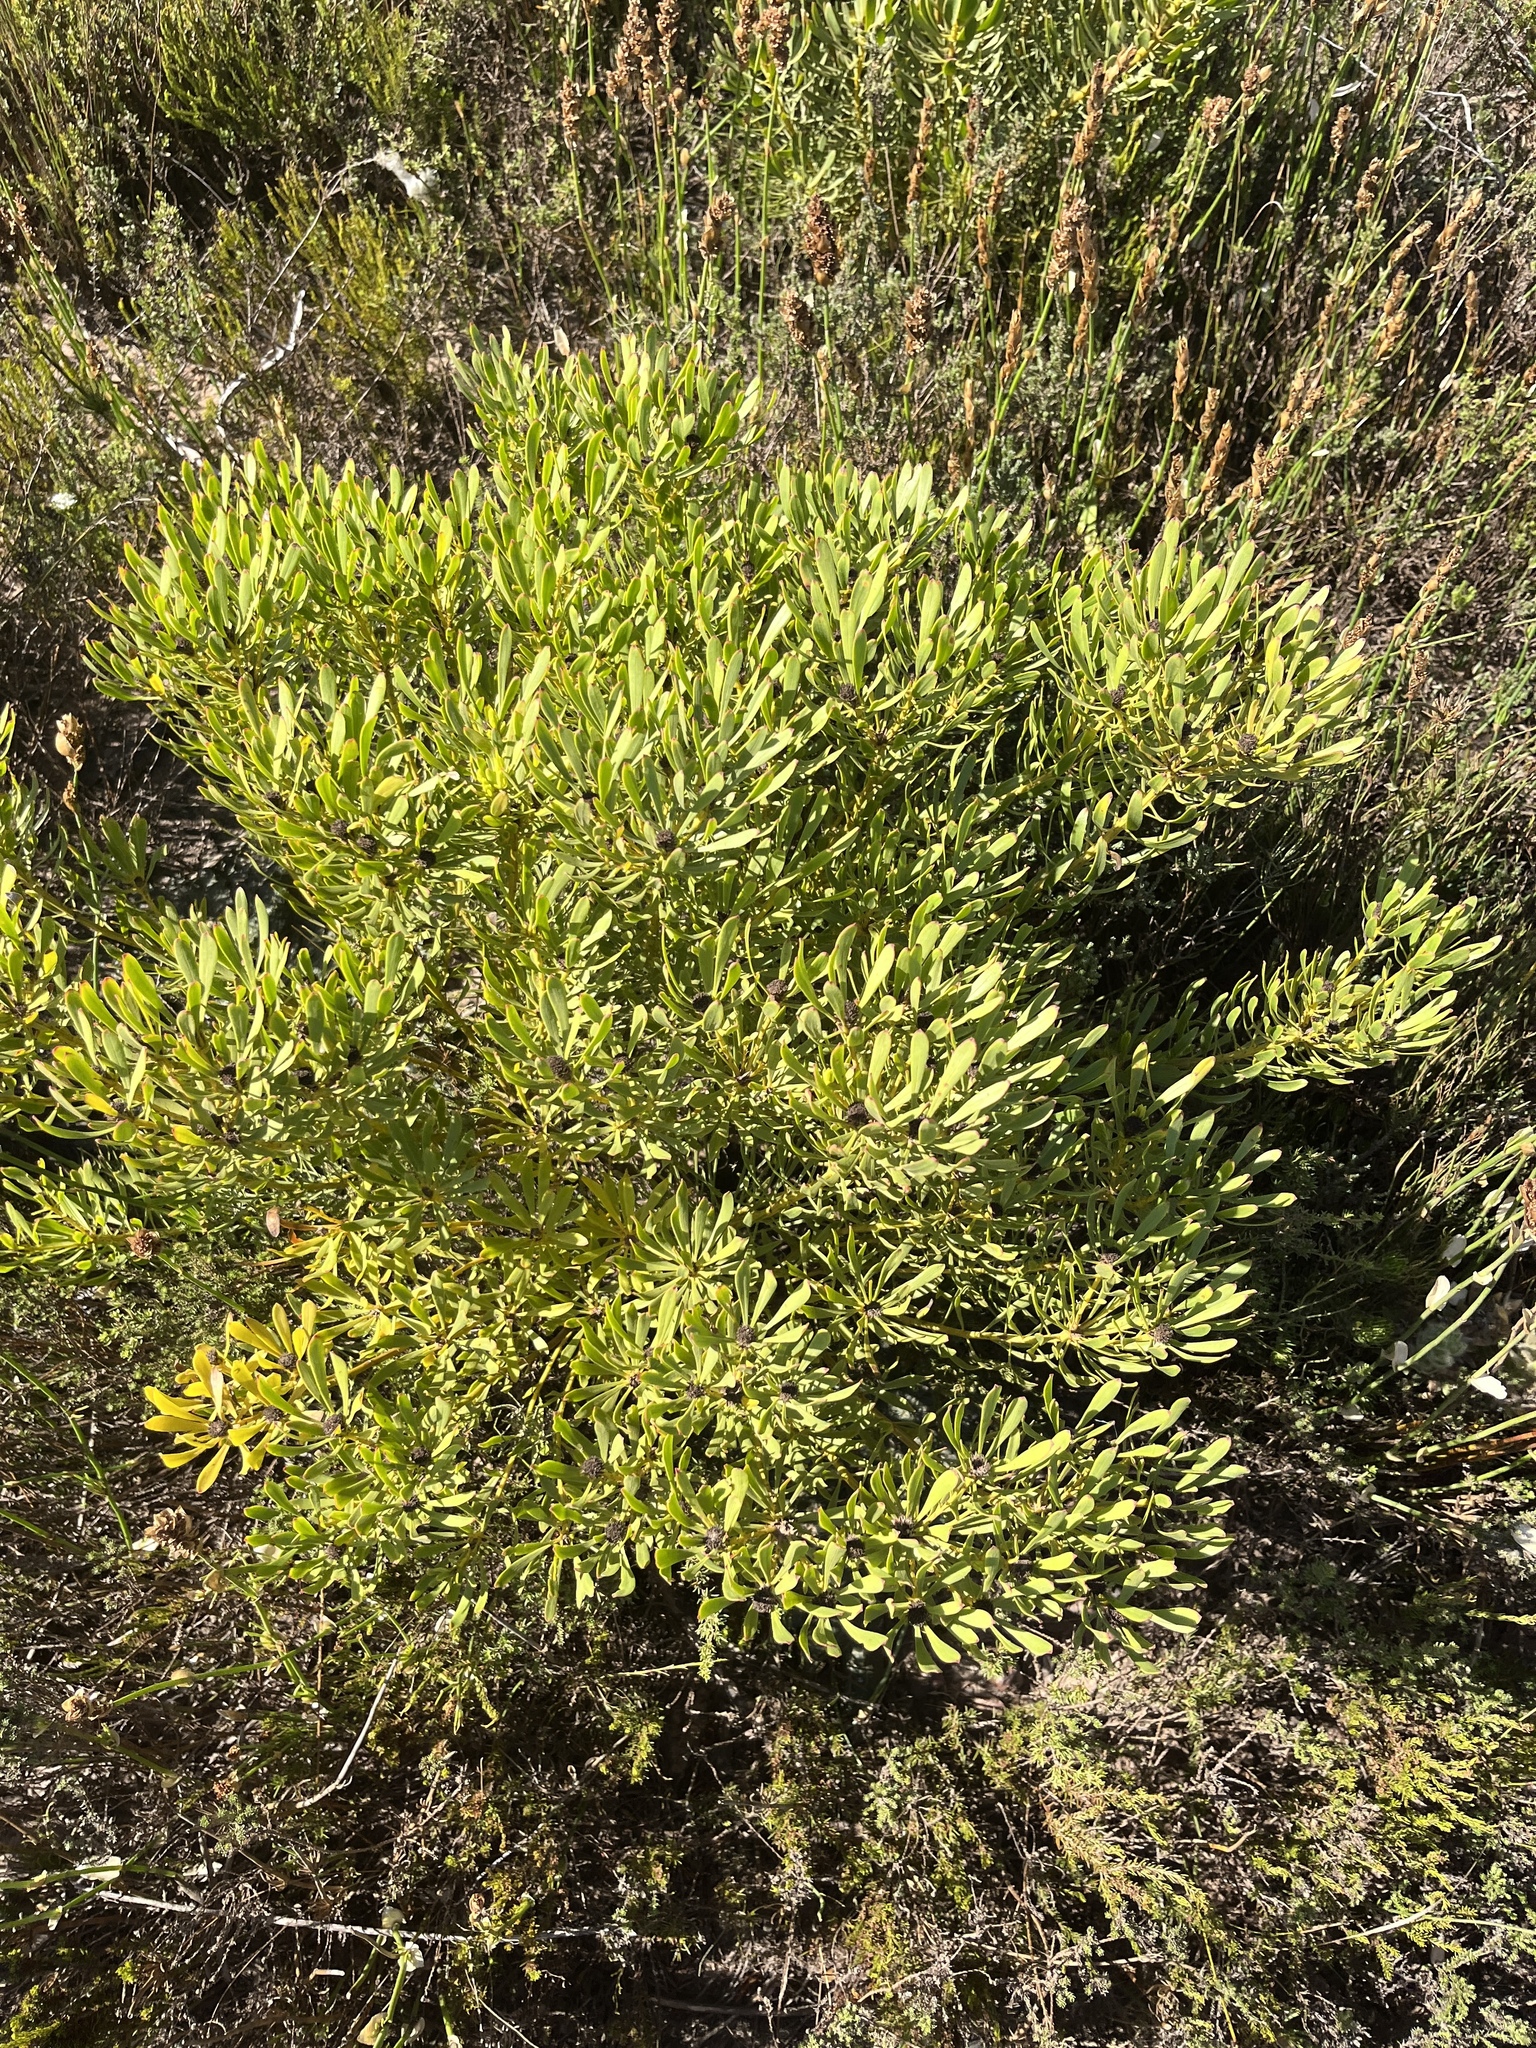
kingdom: Plantae
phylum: Tracheophyta
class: Magnoliopsida
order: Proteales
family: Proteaceae
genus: Leucadendron
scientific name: Leucadendron platyspermum
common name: Plate-seed conebush
